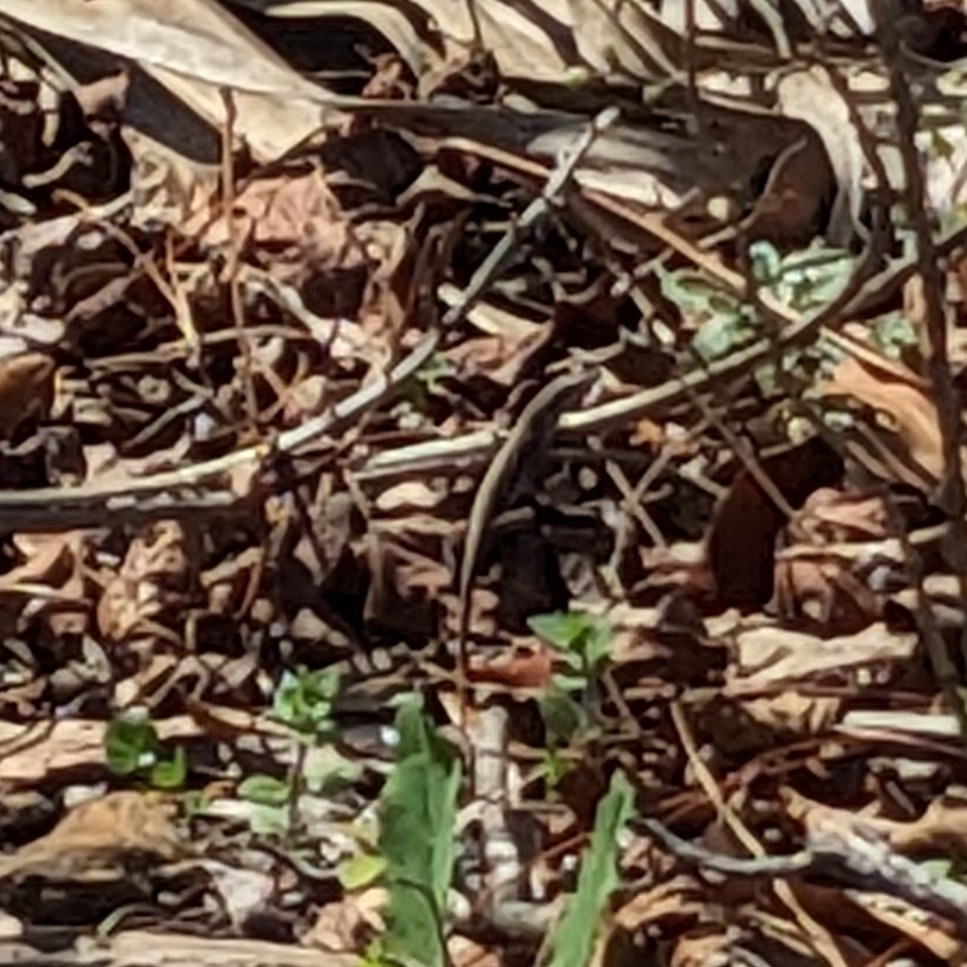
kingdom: Animalia
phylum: Chordata
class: Squamata
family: Dactyloidae
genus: Anolis
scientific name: Anolis carolinensis
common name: Green anole
